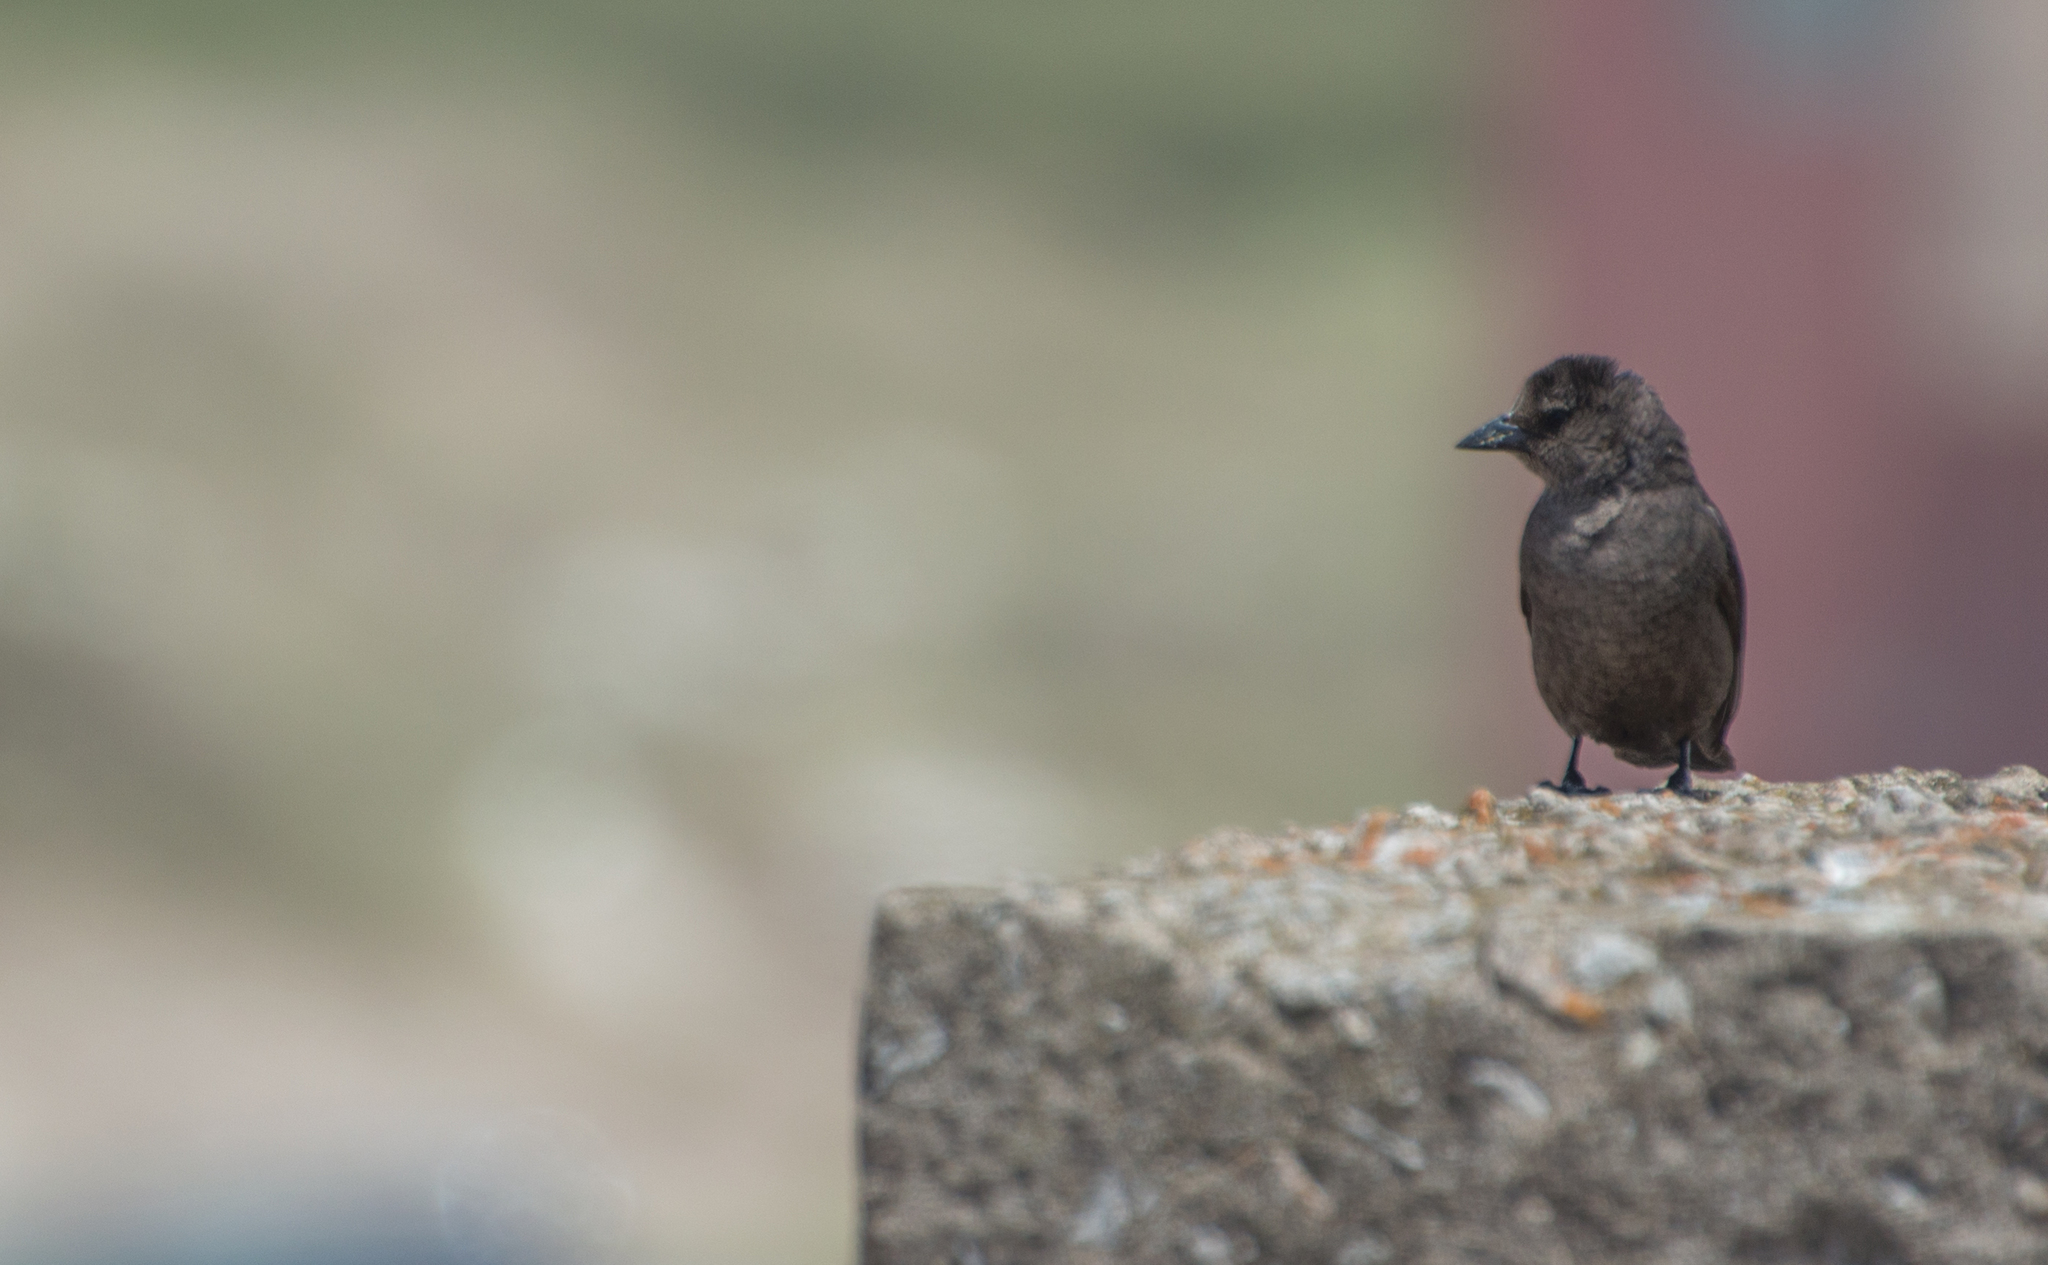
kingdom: Animalia
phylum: Chordata
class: Aves
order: Passeriformes
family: Icteridae
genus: Molothrus
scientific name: Molothrus bonariensis
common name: Shiny cowbird
